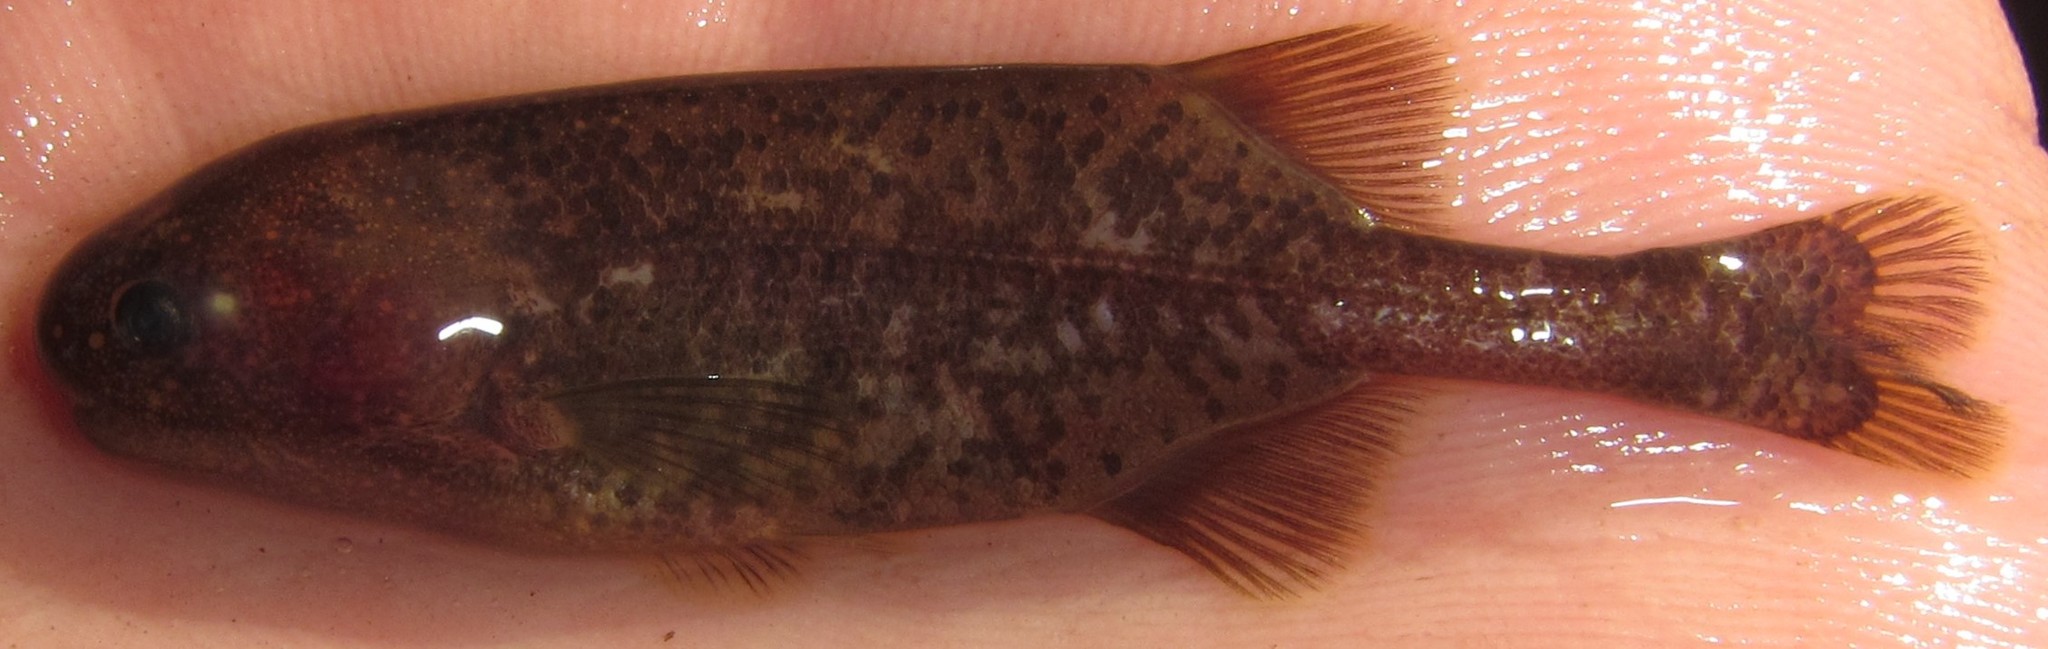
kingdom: Animalia
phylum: Chordata
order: Osteoglossiformes
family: Mormyridae
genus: Pollimyrus
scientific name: Pollimyrus cuandoensis
